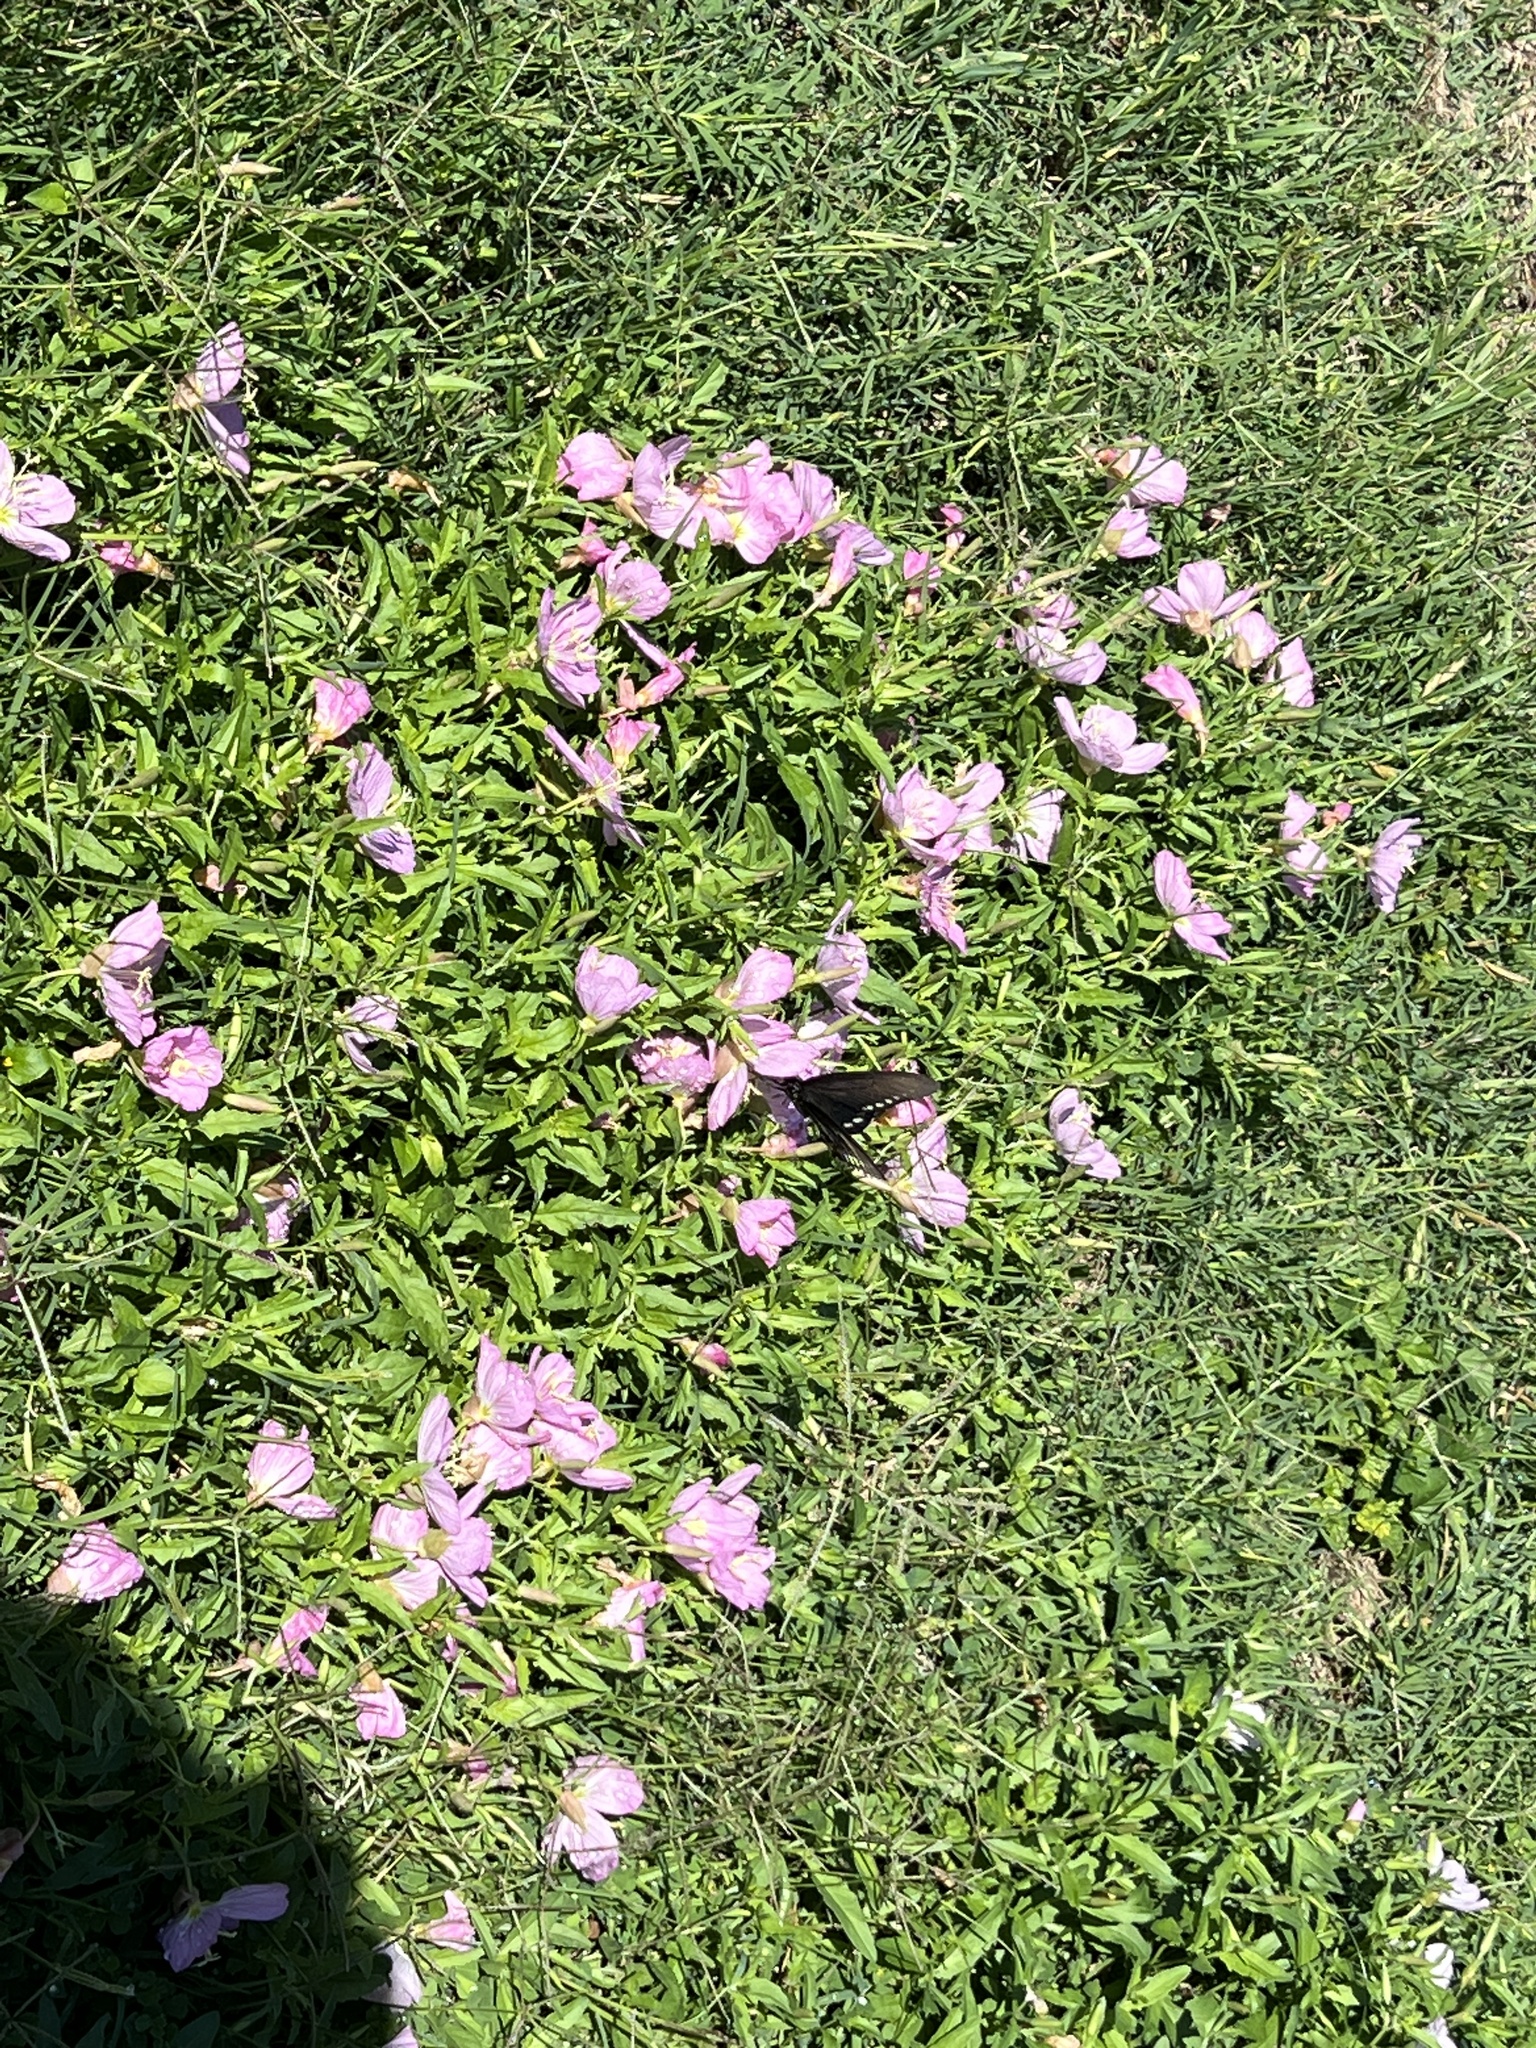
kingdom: Animalia
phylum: Arthropoda
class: Insecta
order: Lepidoptera
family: Papilionidae
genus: Battus
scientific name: Battus philenor
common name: Pipevine swallowtail
